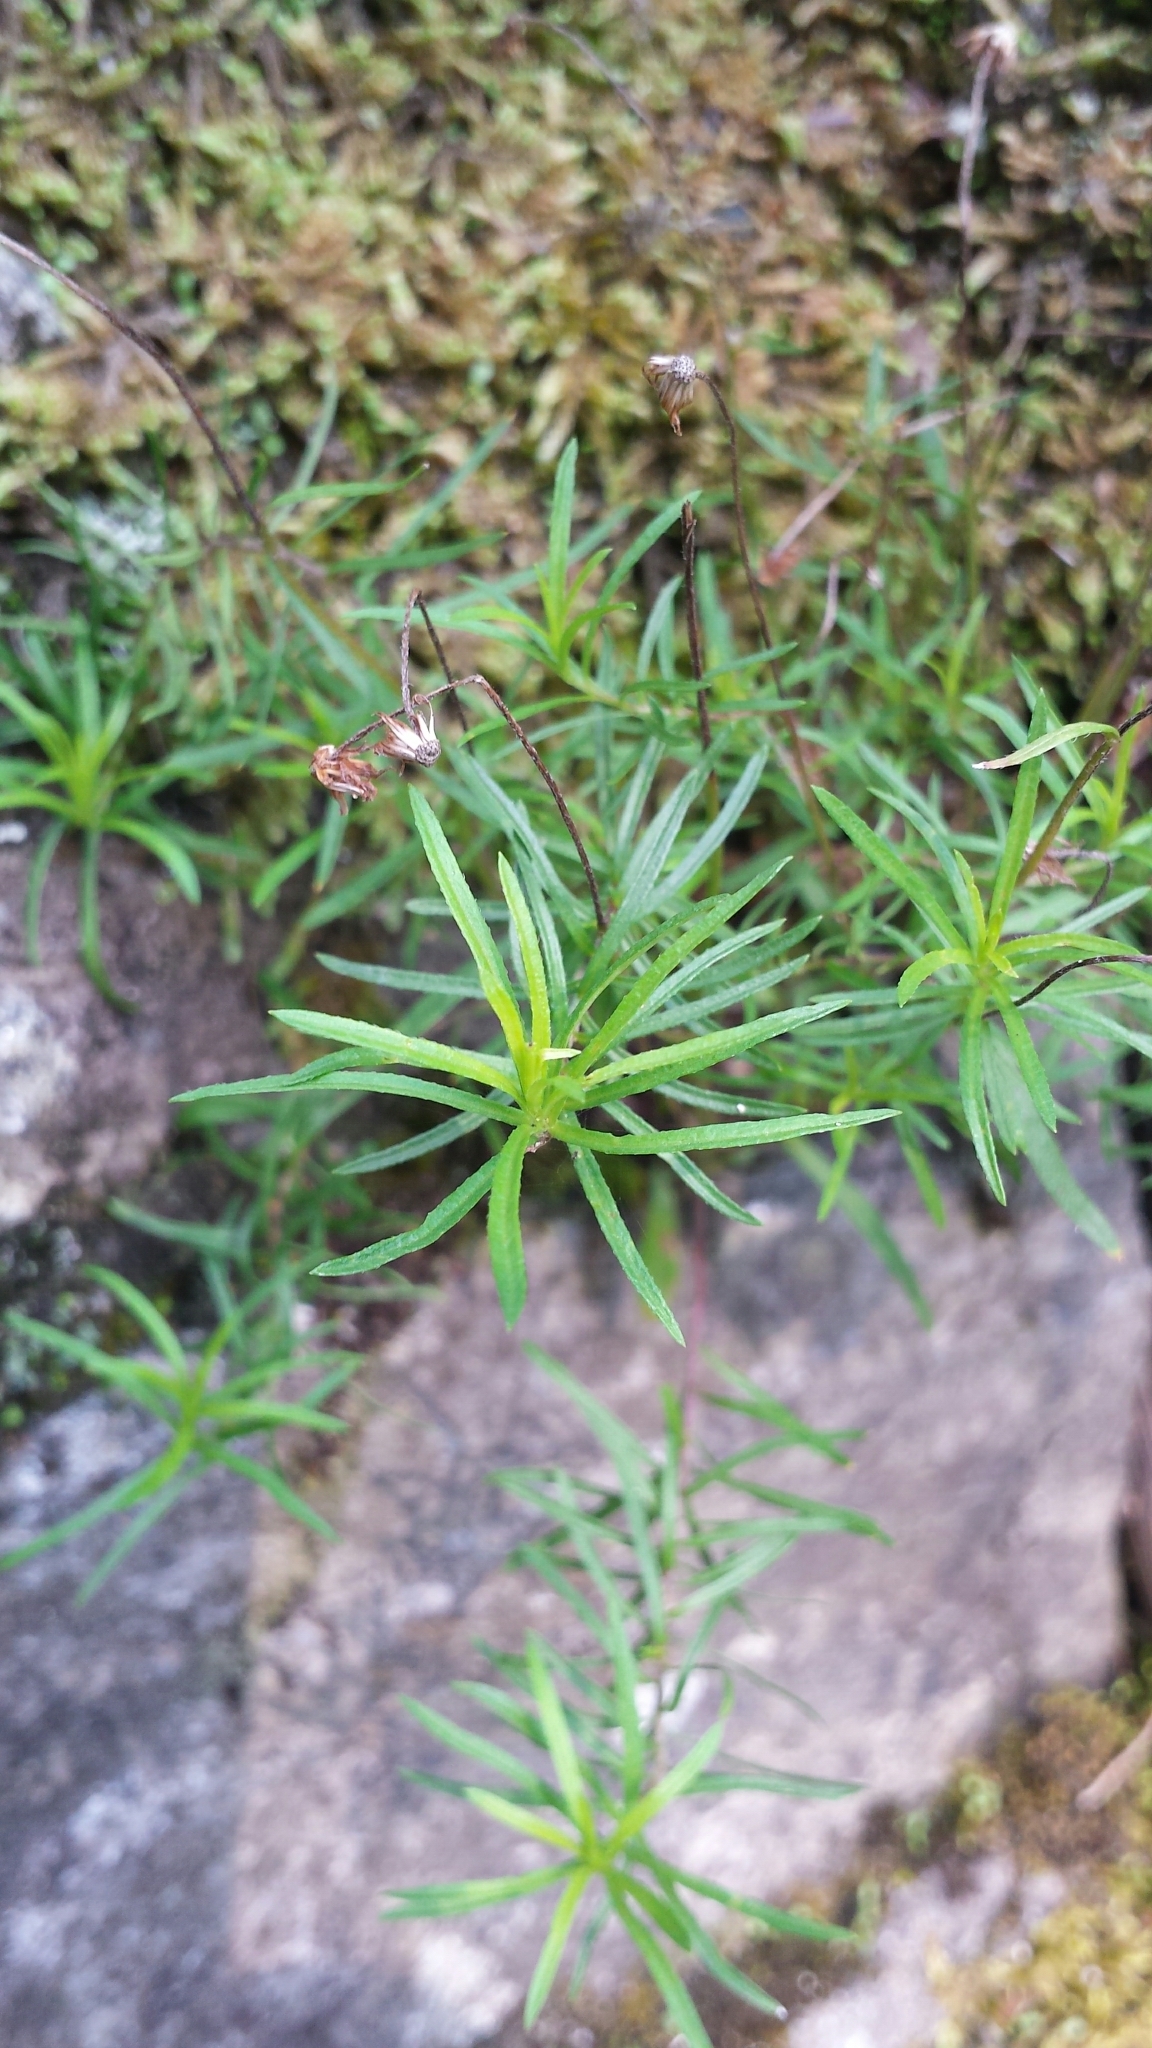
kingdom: Plantae
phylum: Tracheophyta
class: Magnoliopsida
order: Asterales
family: Asteraceae
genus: Erigeron
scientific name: Erigeron hyssopifolius
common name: Daisy fleabane
